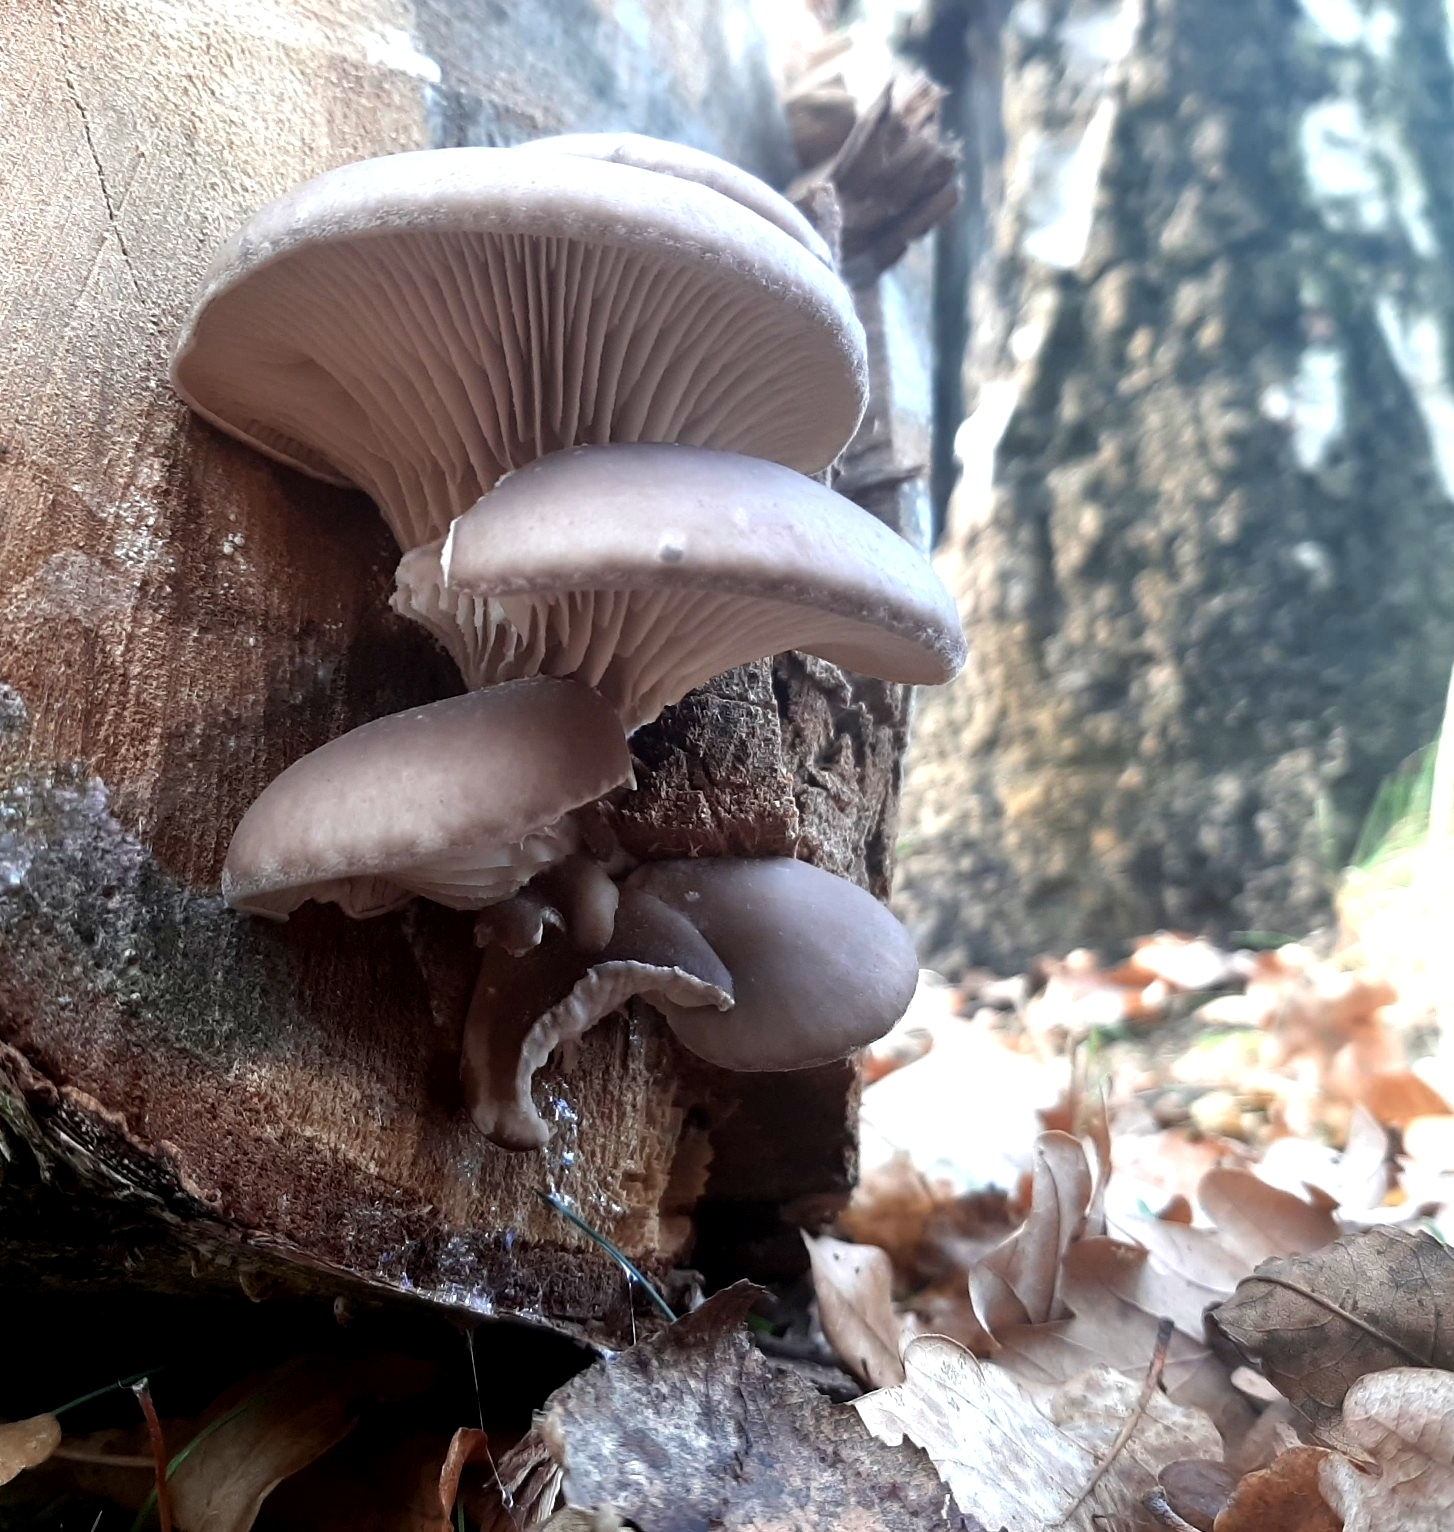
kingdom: Fungi
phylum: Basidiomycota
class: Agaricomycetes
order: Agaricales
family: Pleurotaceae
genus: Pleurotus
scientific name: Pleurotus ostreatus
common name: Oyster mushroom
